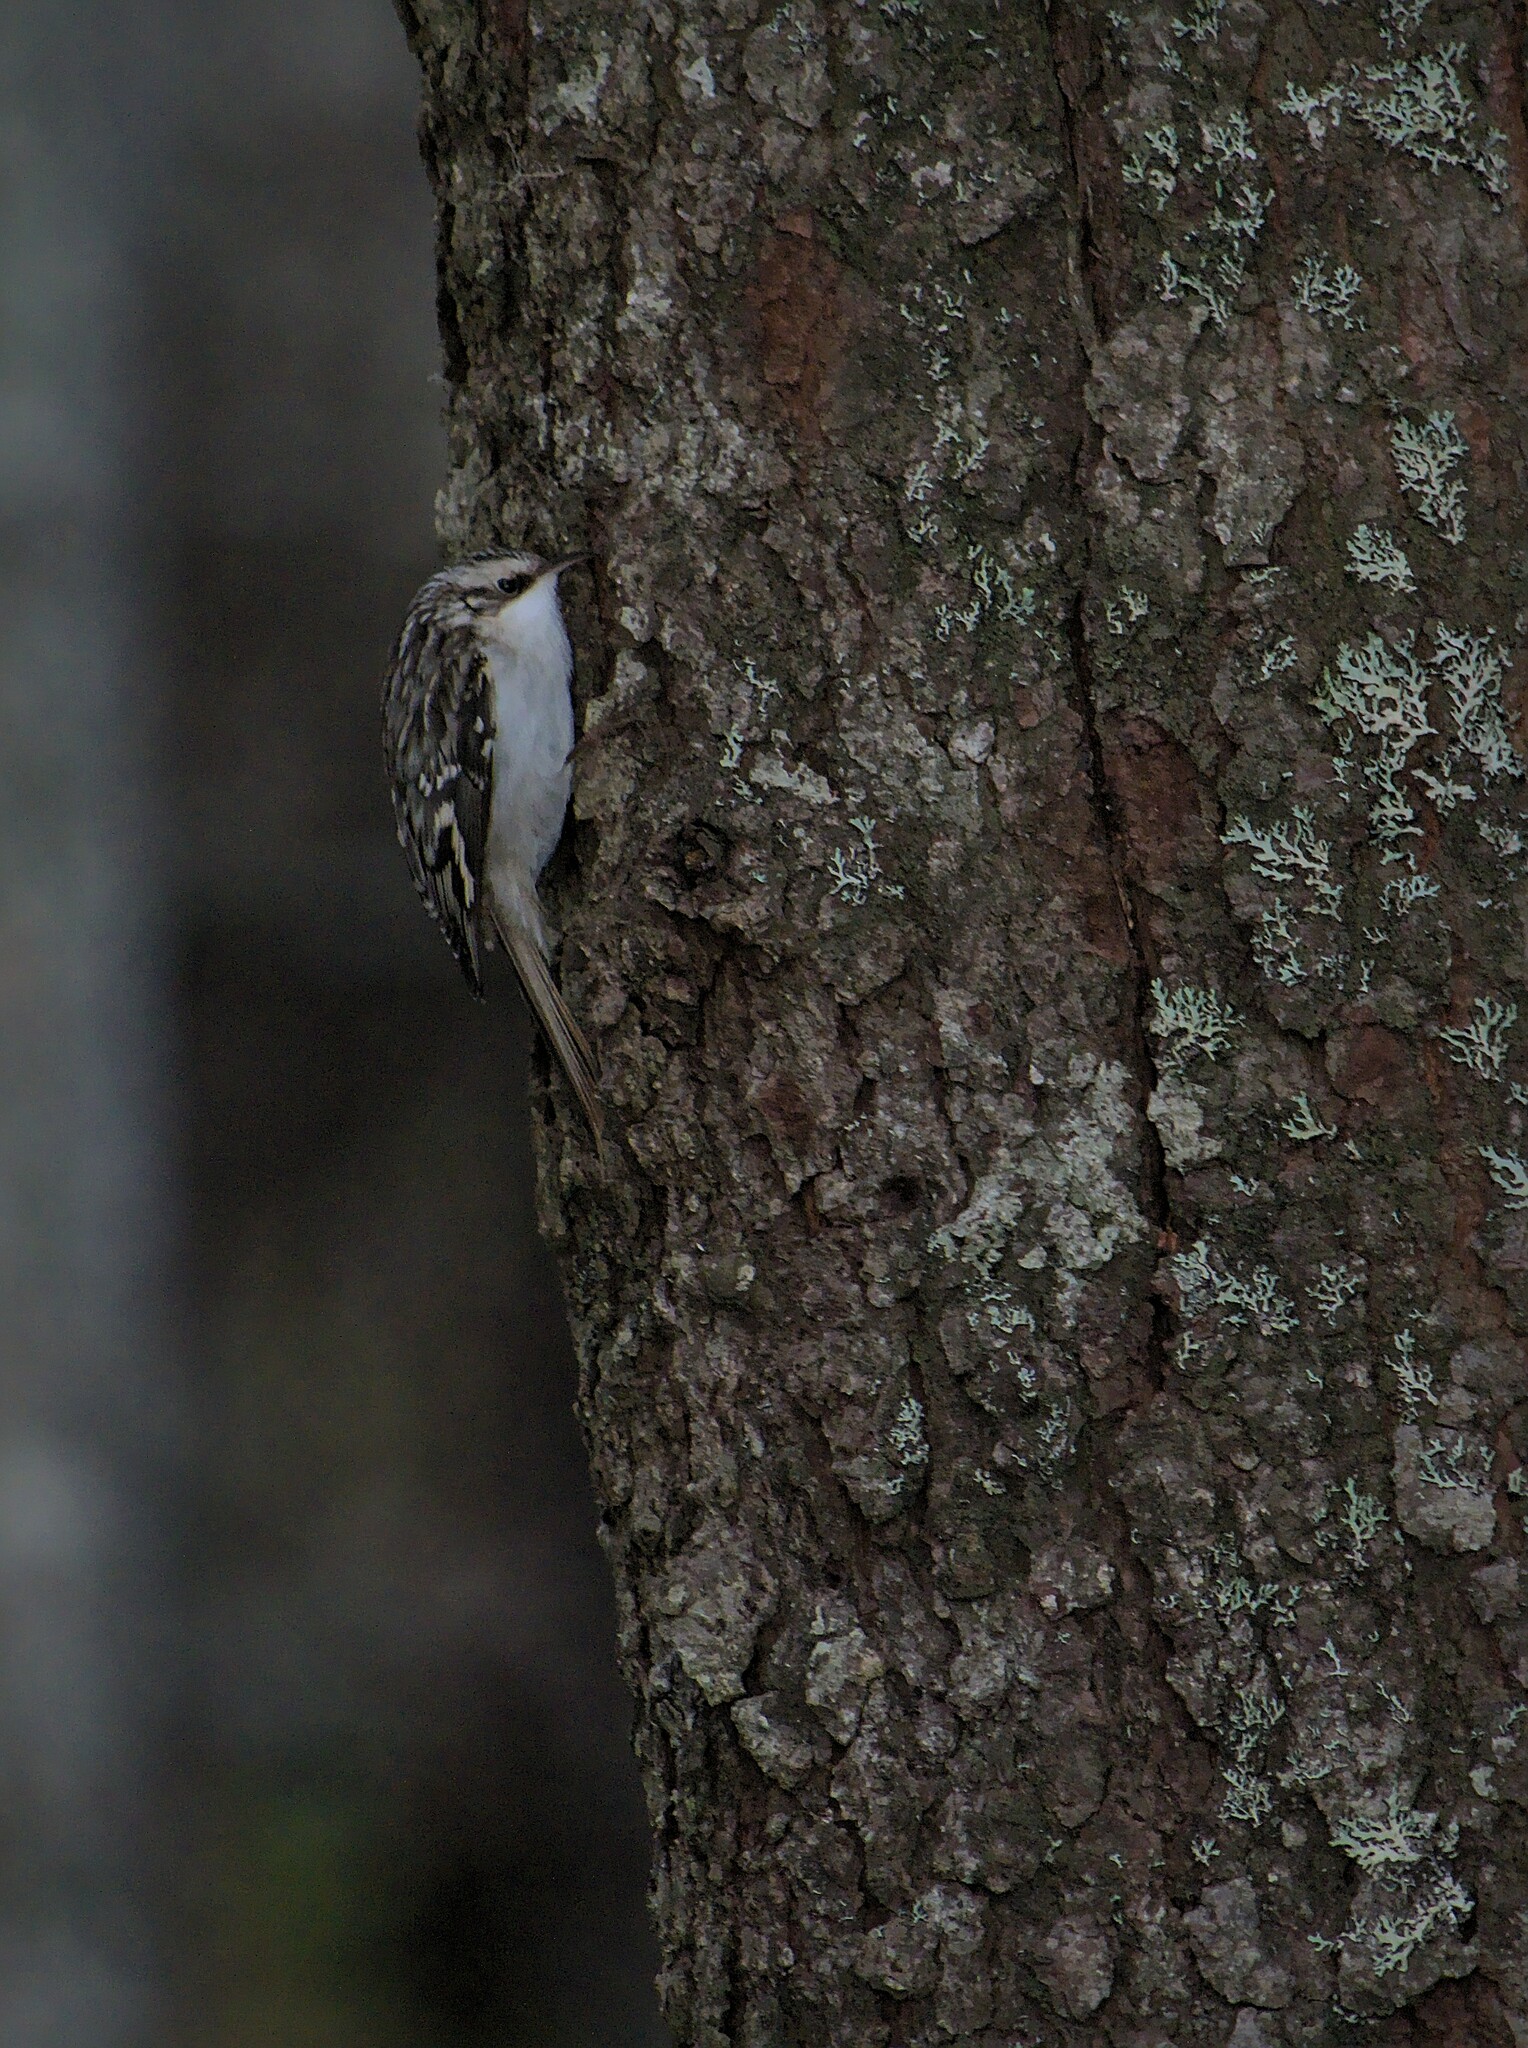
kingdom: Animalia
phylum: Chordata
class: Aves
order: Passeriformes
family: Certhiidae
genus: Certhia
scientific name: Certhia americana
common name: Brown creeper
